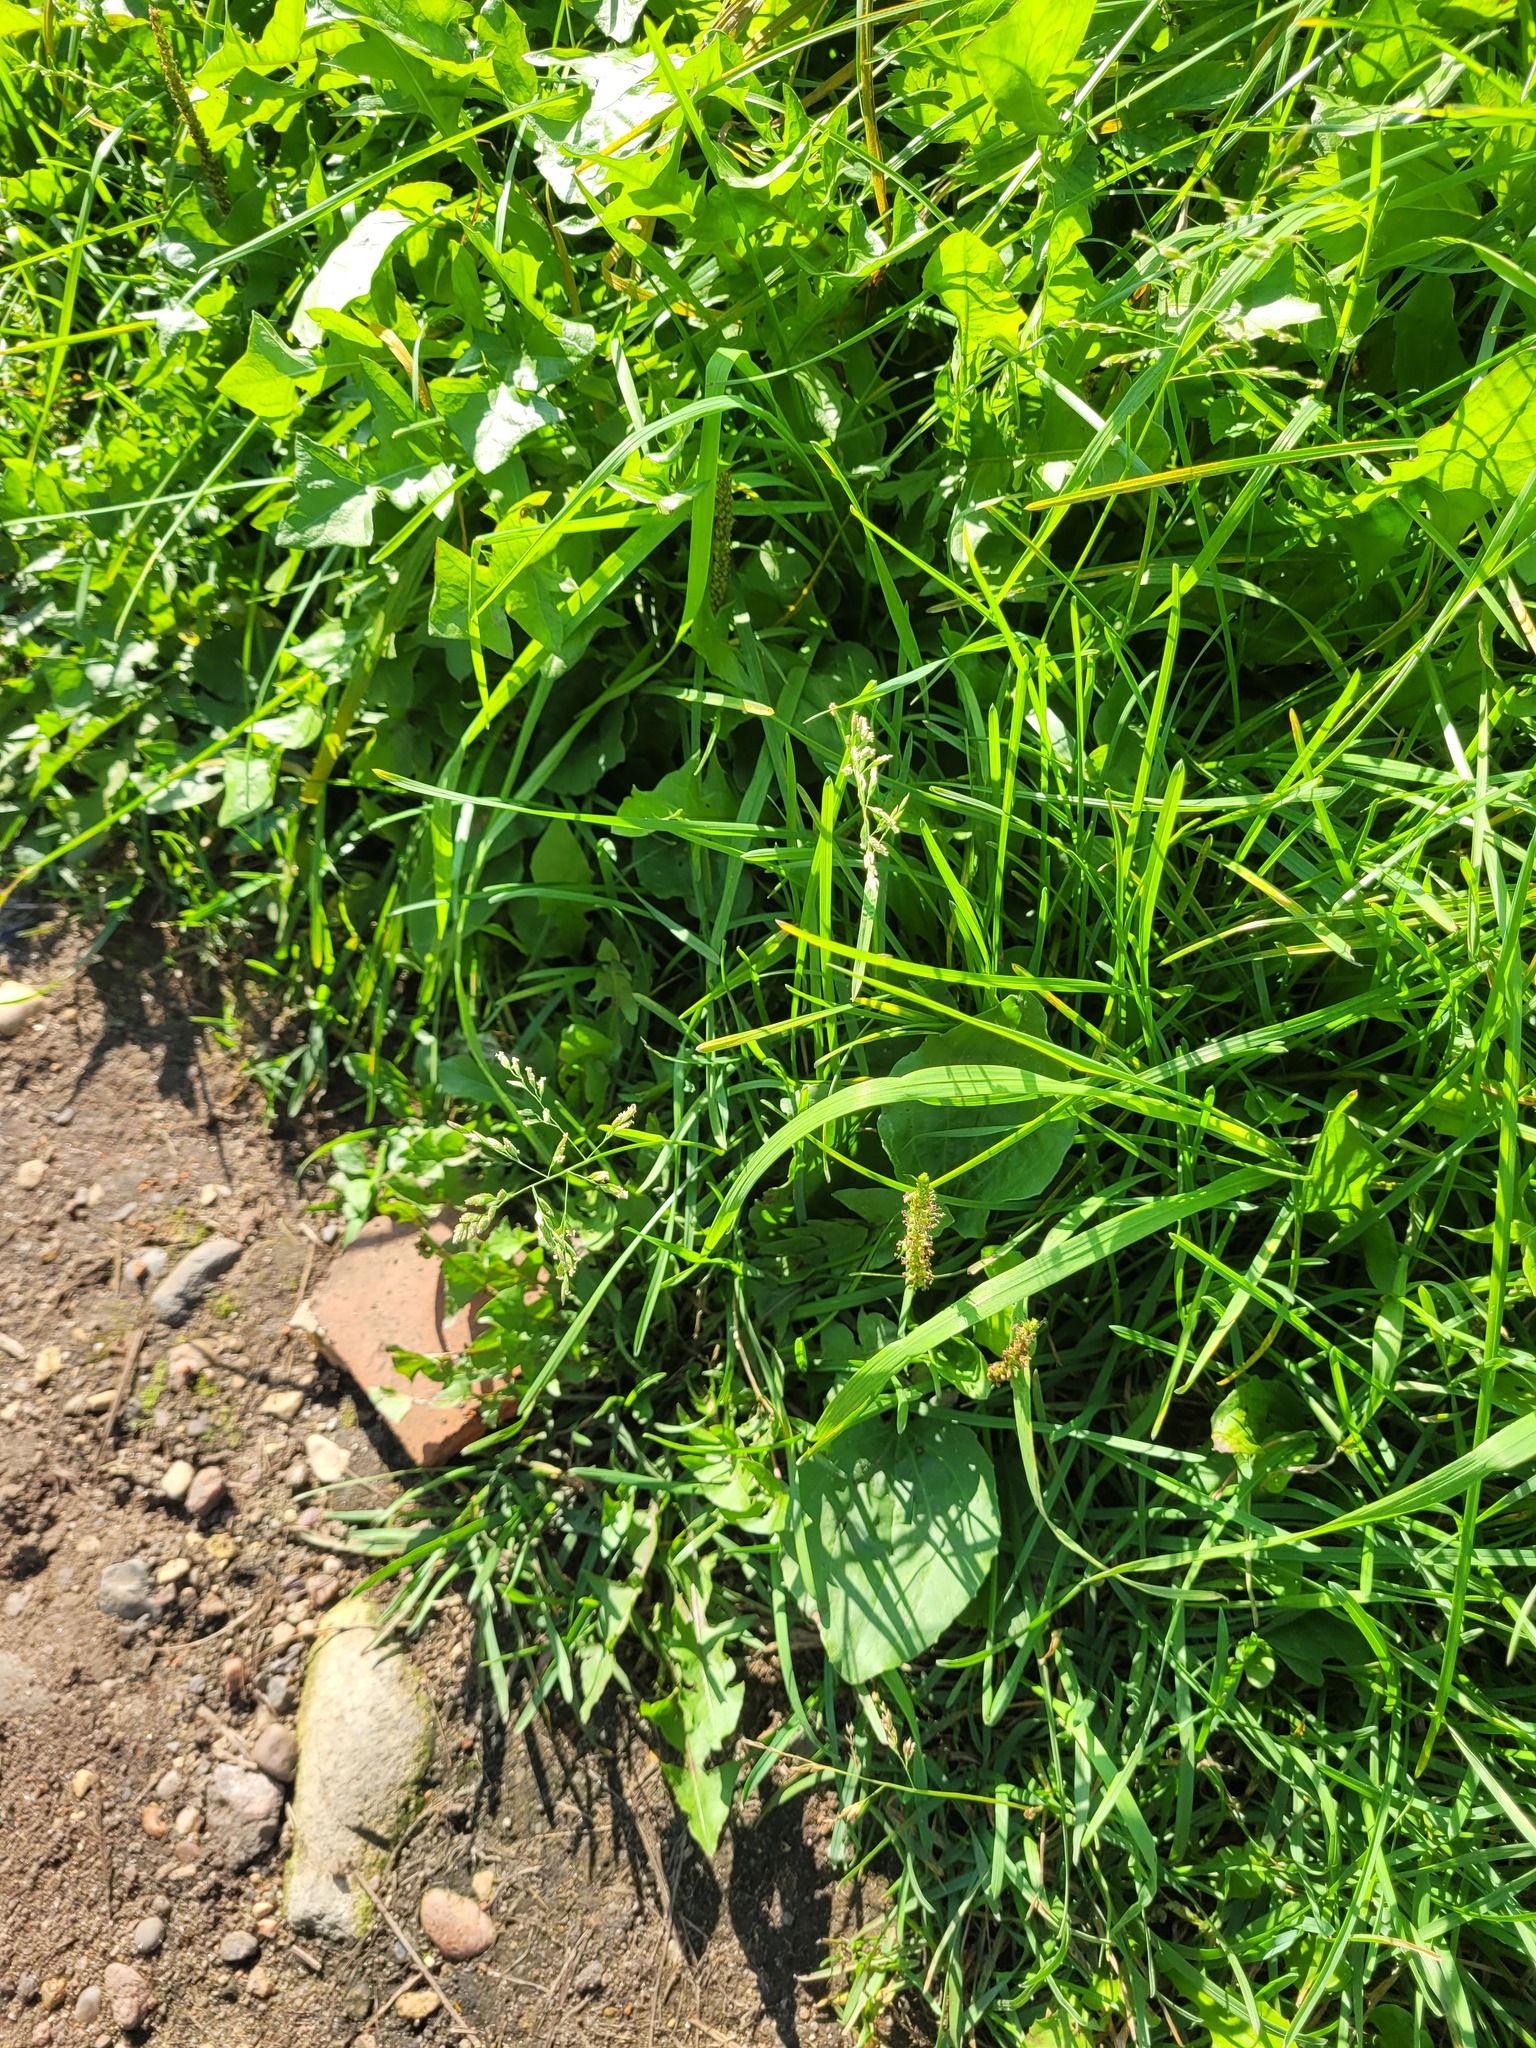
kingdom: Plantae
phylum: Tracheophyta
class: Liliopsida
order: Poales
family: Poaceae
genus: Poa
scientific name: Poa annua
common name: Annual bluegrass
